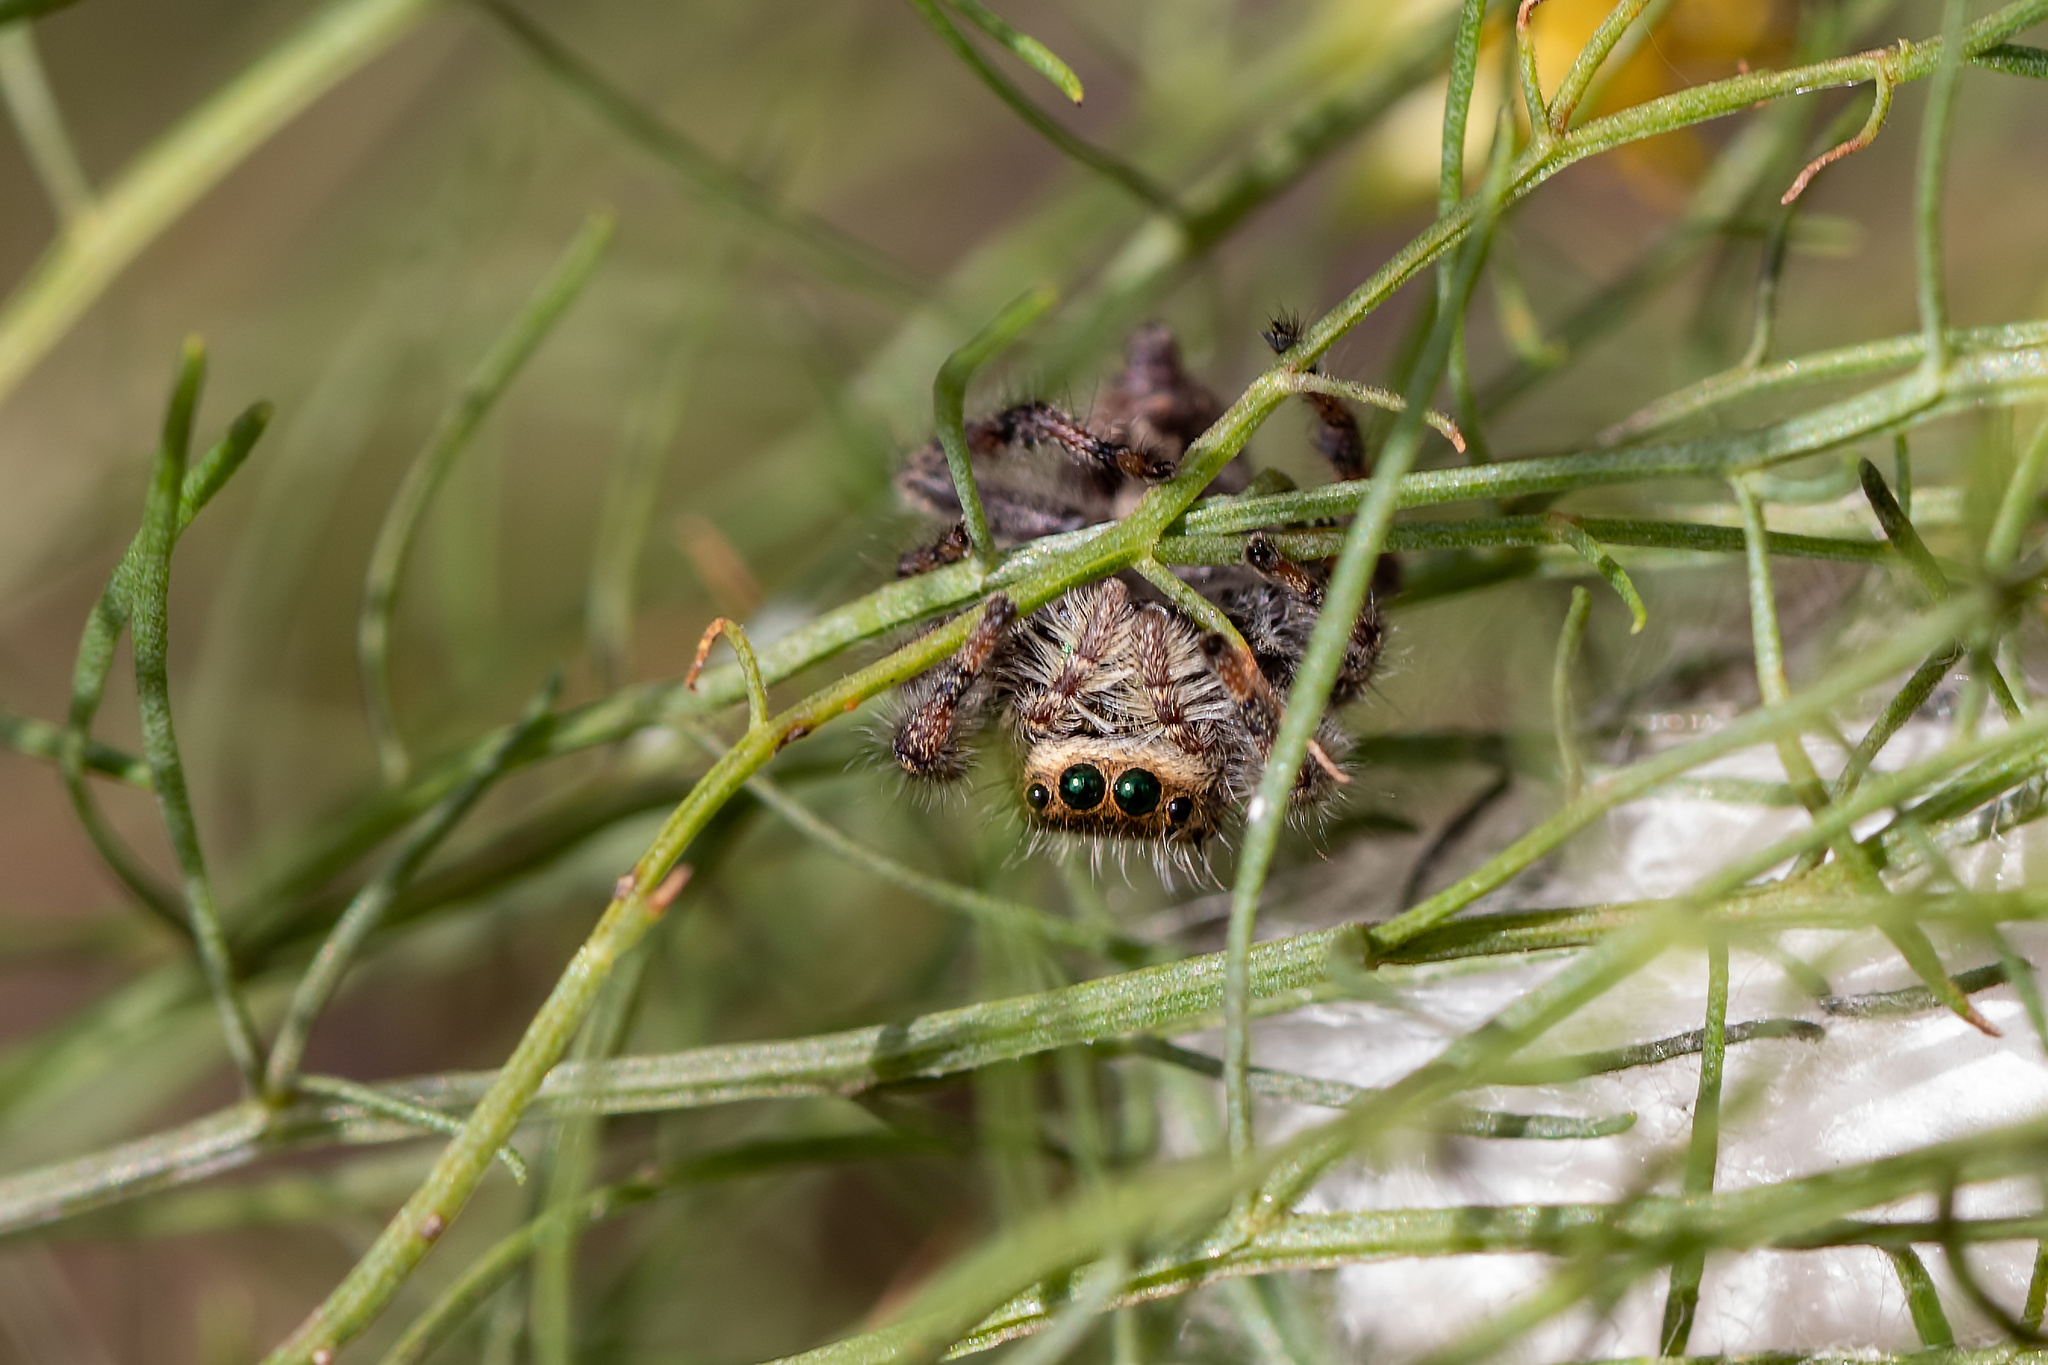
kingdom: Animalia
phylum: Arthropoda
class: Arachnida
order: Araneae
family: Salticidae
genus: Phidippus
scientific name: Phidippus regius
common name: Regal jumper
